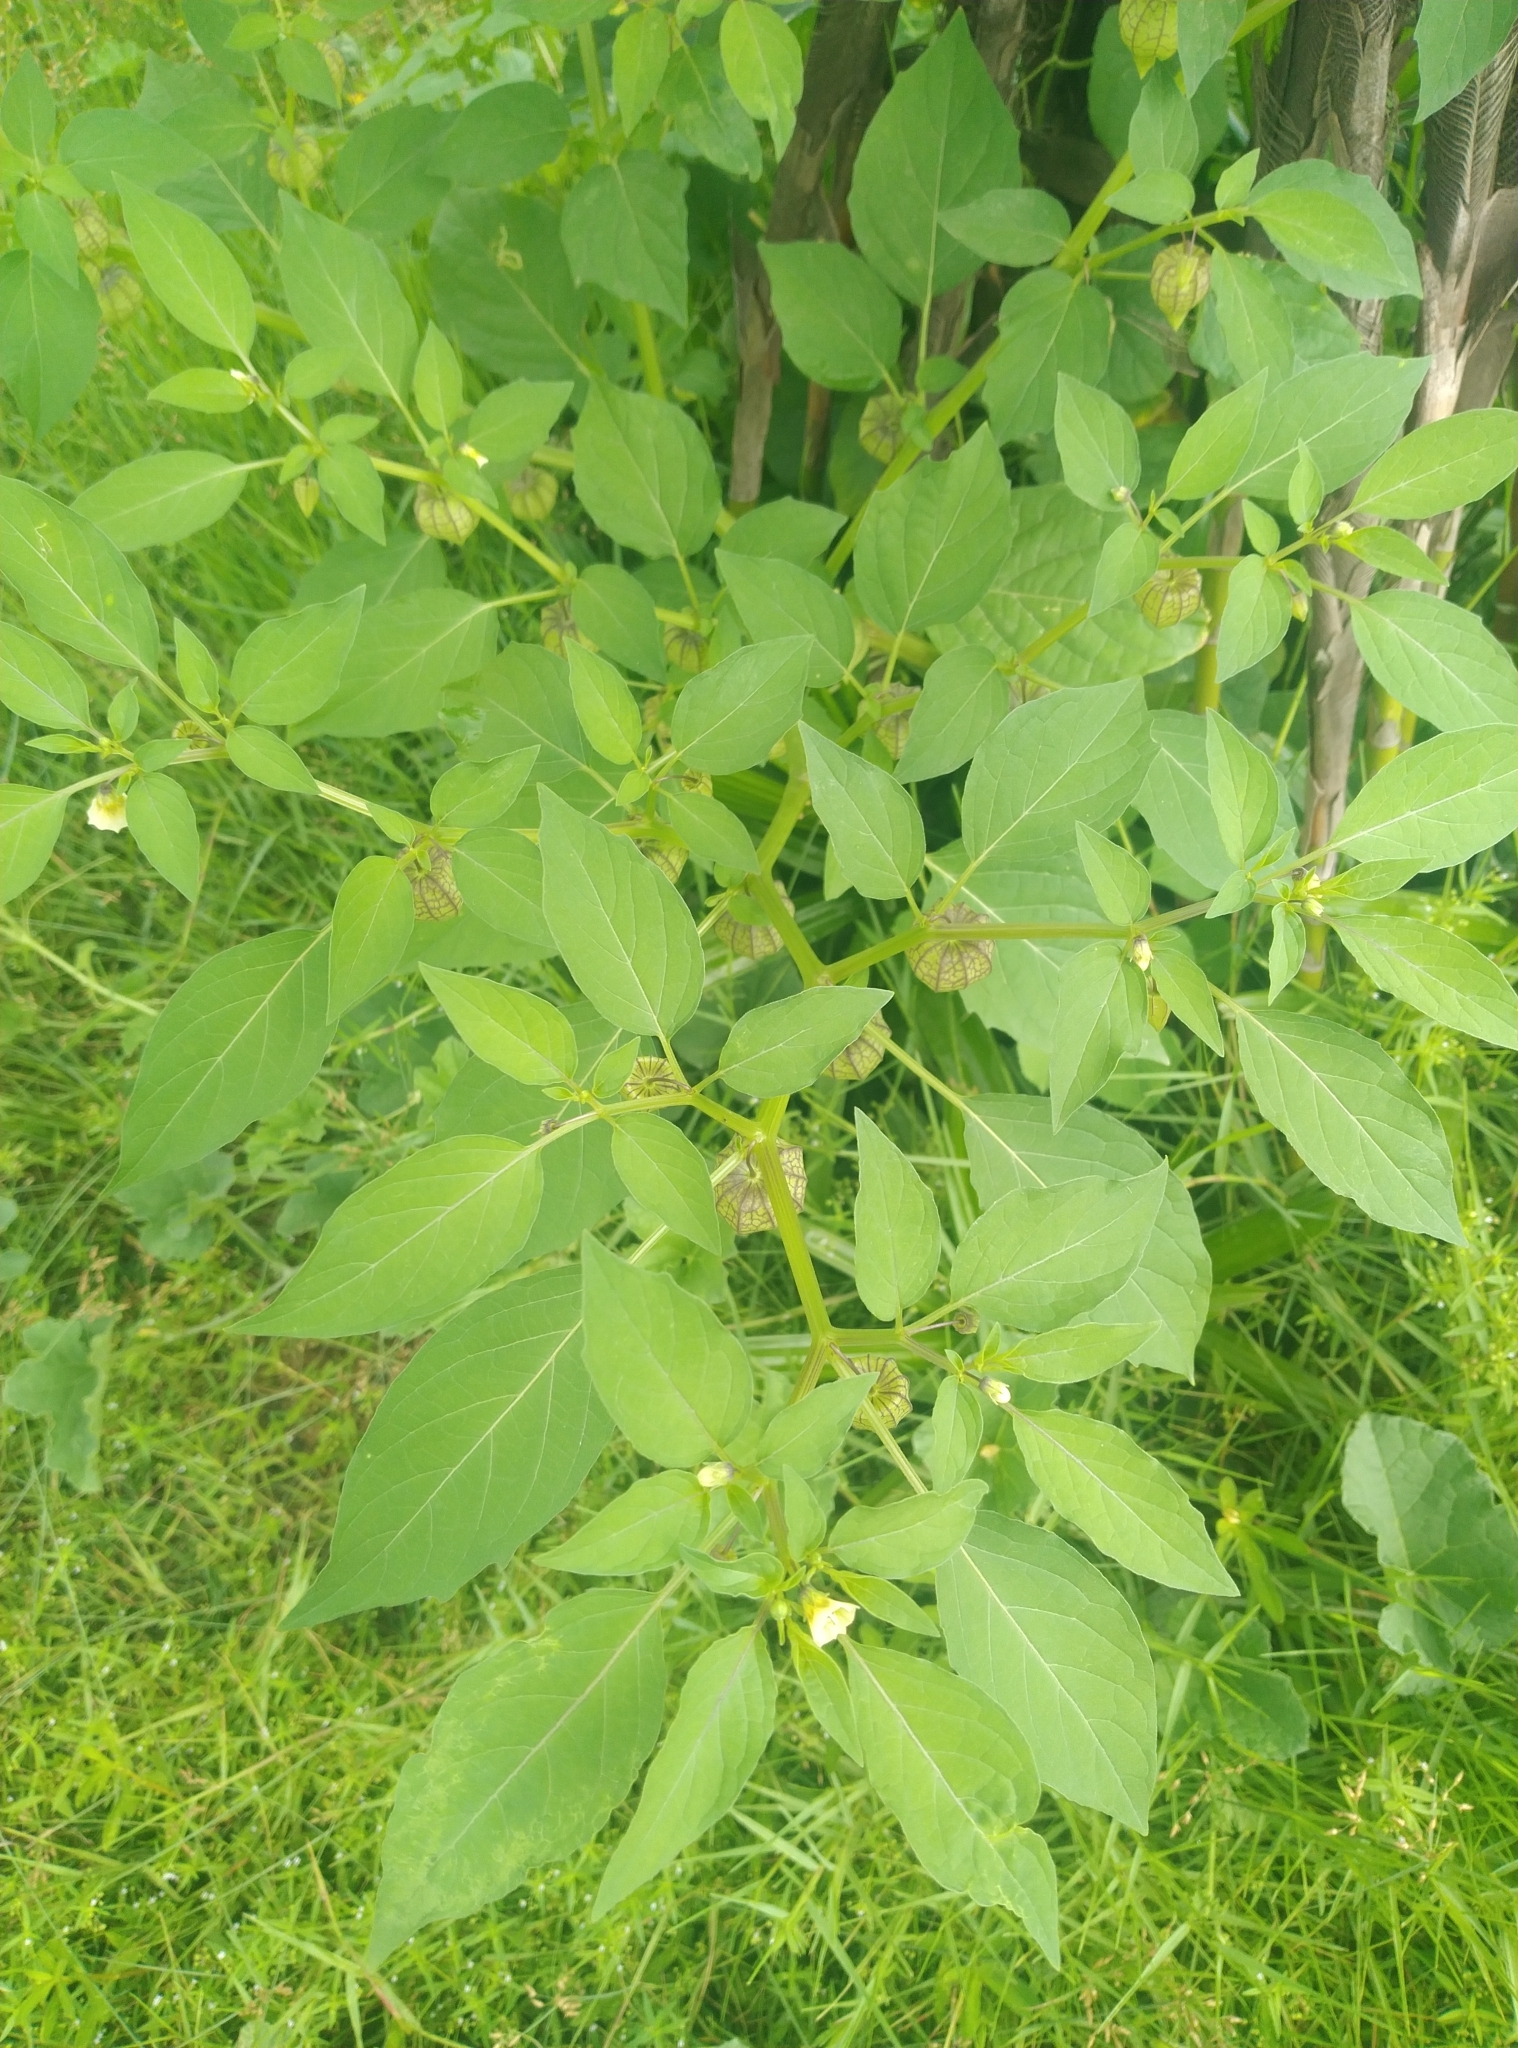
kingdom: Plantae
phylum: Tracheophyta
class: Magnoliopsida
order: Solanales
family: Solanaceae
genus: Physalis
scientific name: Physalis angulata
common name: Angular winter-cherry
